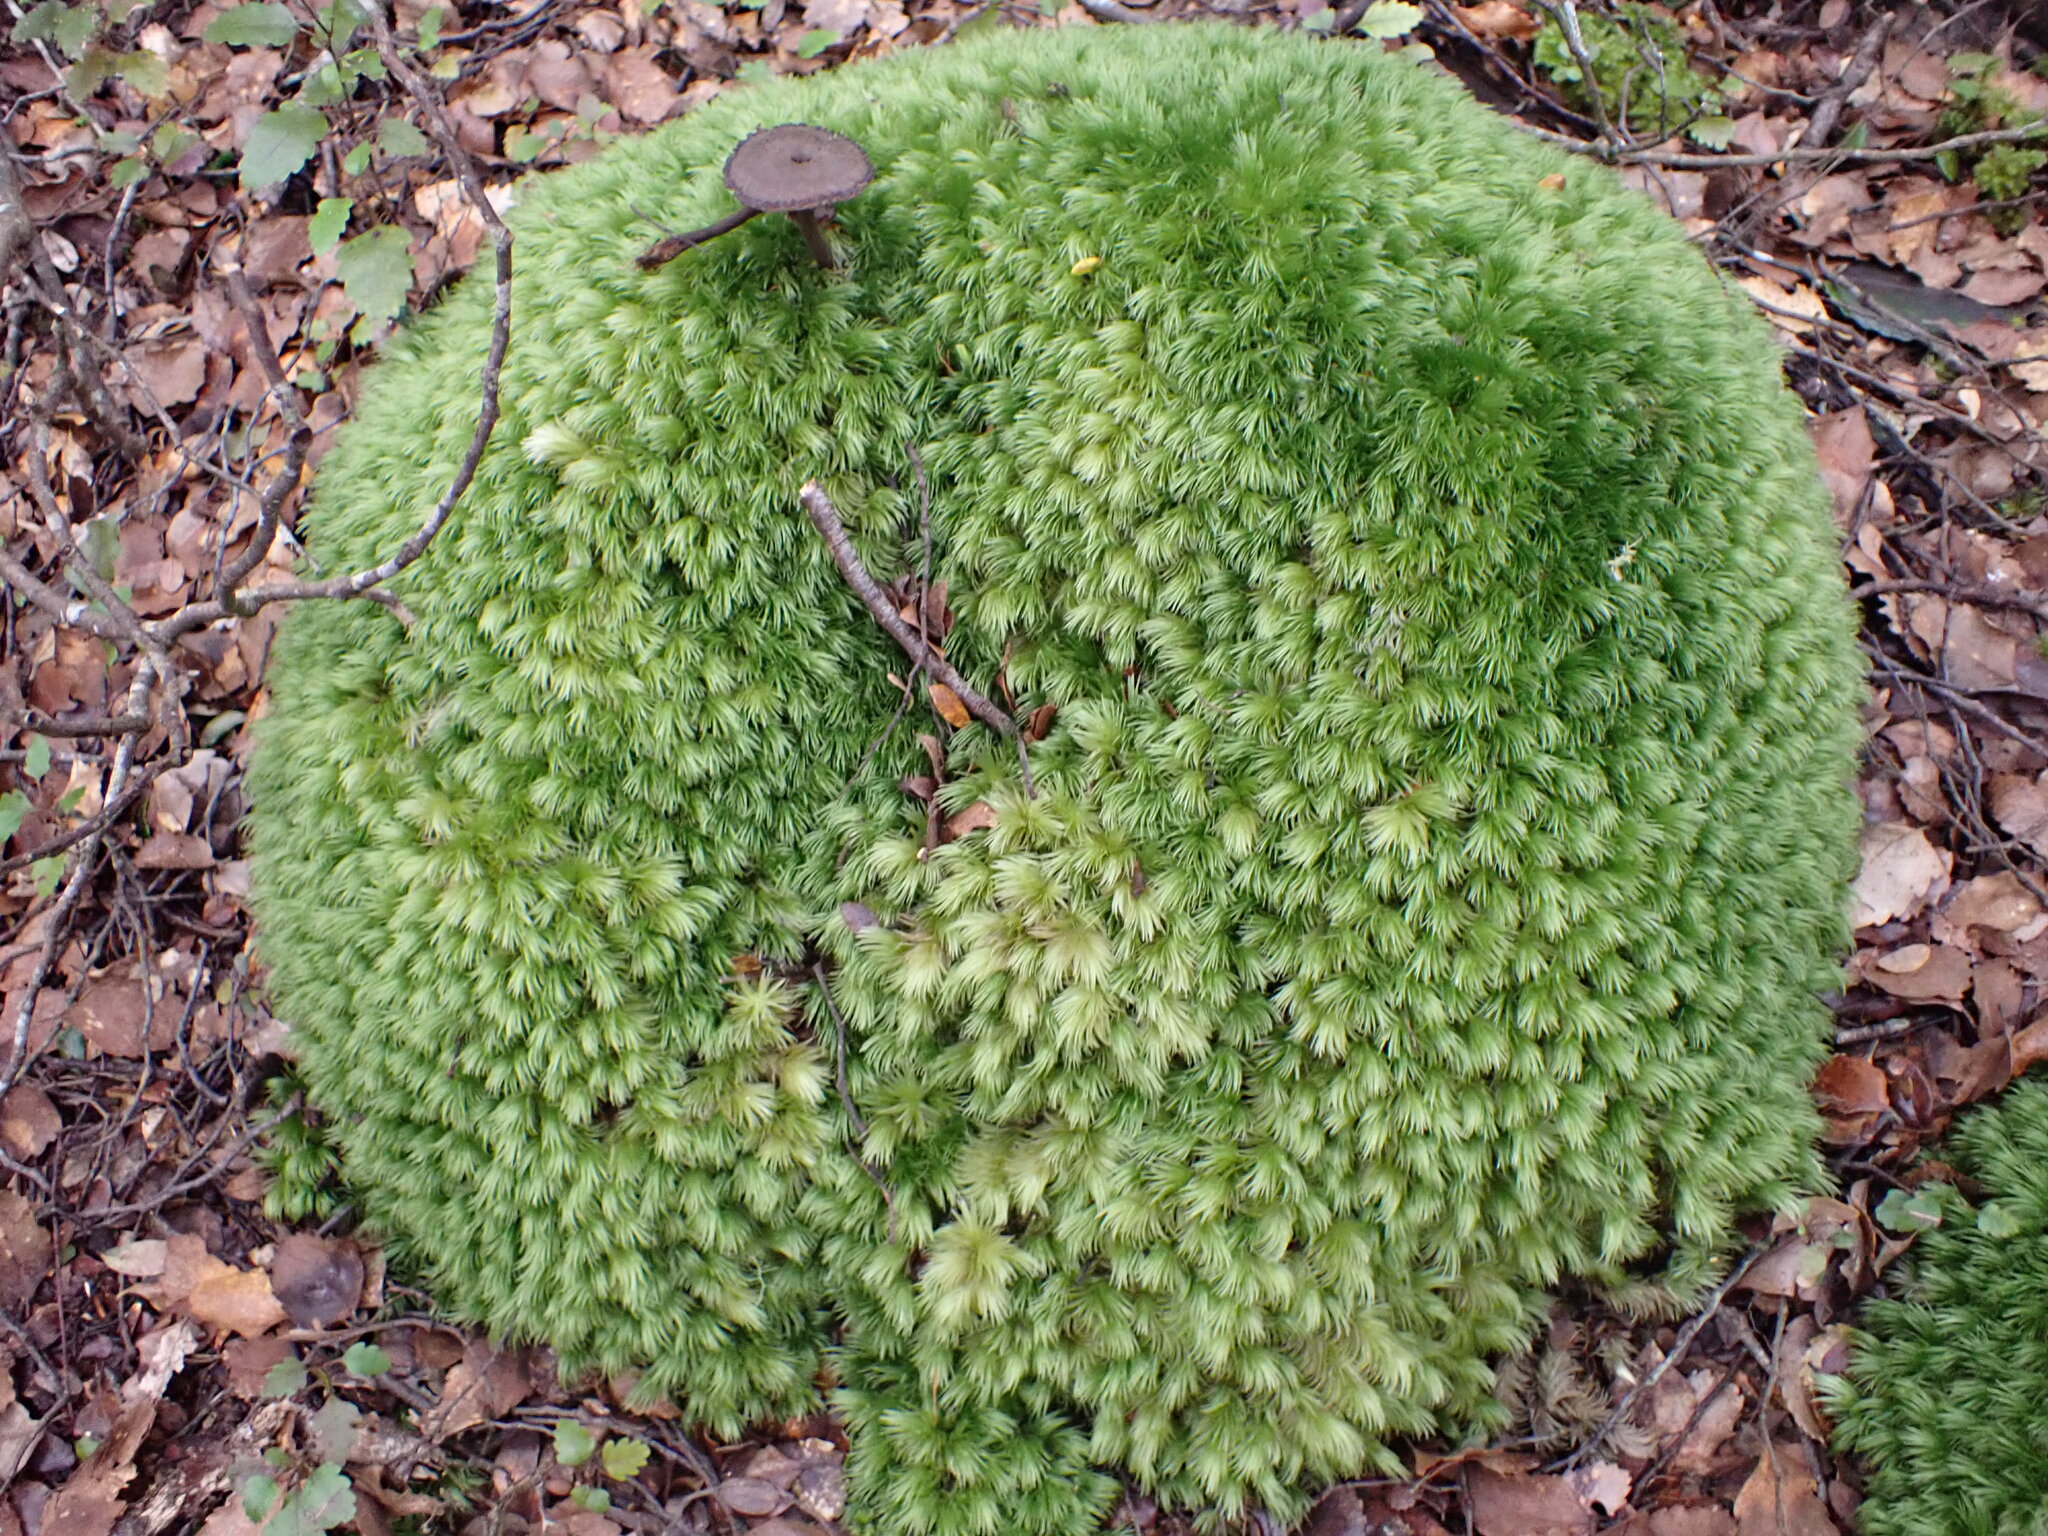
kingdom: Plantae
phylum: Bryophyta
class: Bryopsida
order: Dicranales
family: Leucobryaceae
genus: Leucobryum
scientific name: Leucobryum javense
